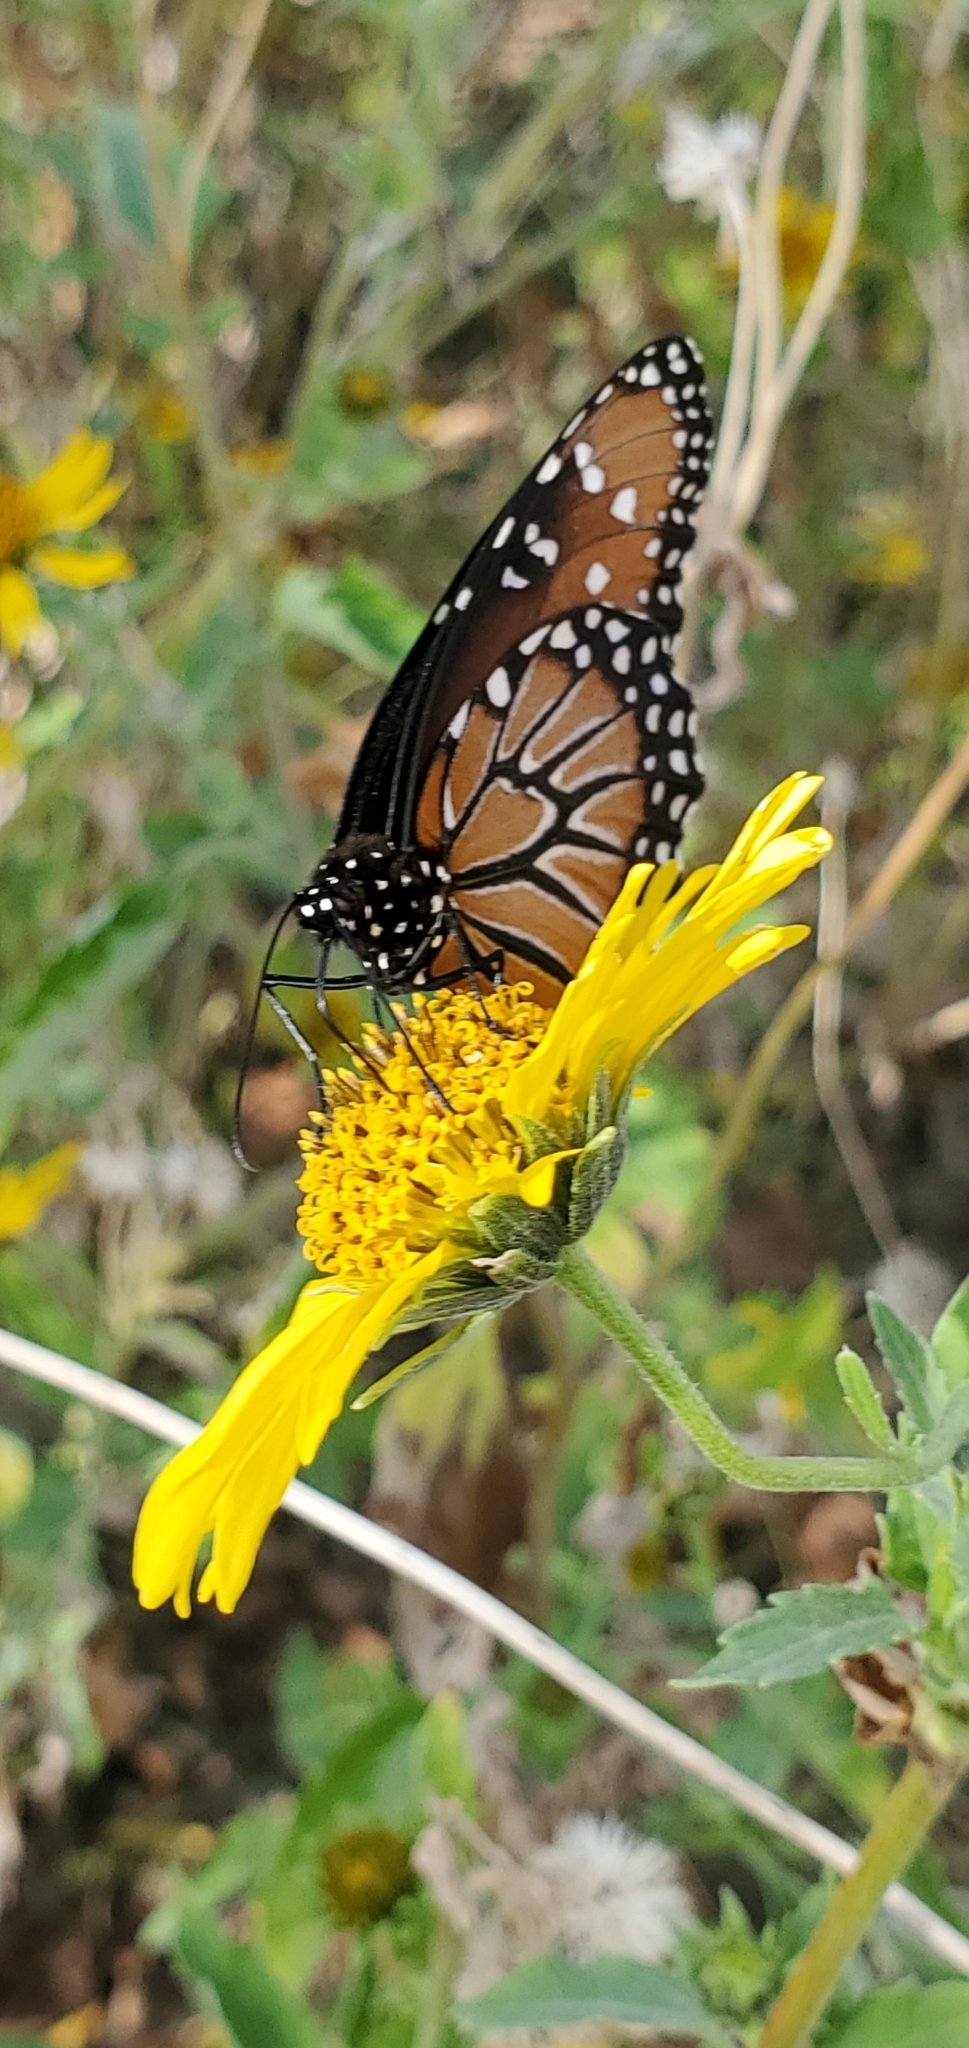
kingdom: Animalia
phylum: Arthropoda
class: Insecta
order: Lepidoptera
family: Nymphalidae
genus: Danaus
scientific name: Danaus gilippus
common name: Queen
